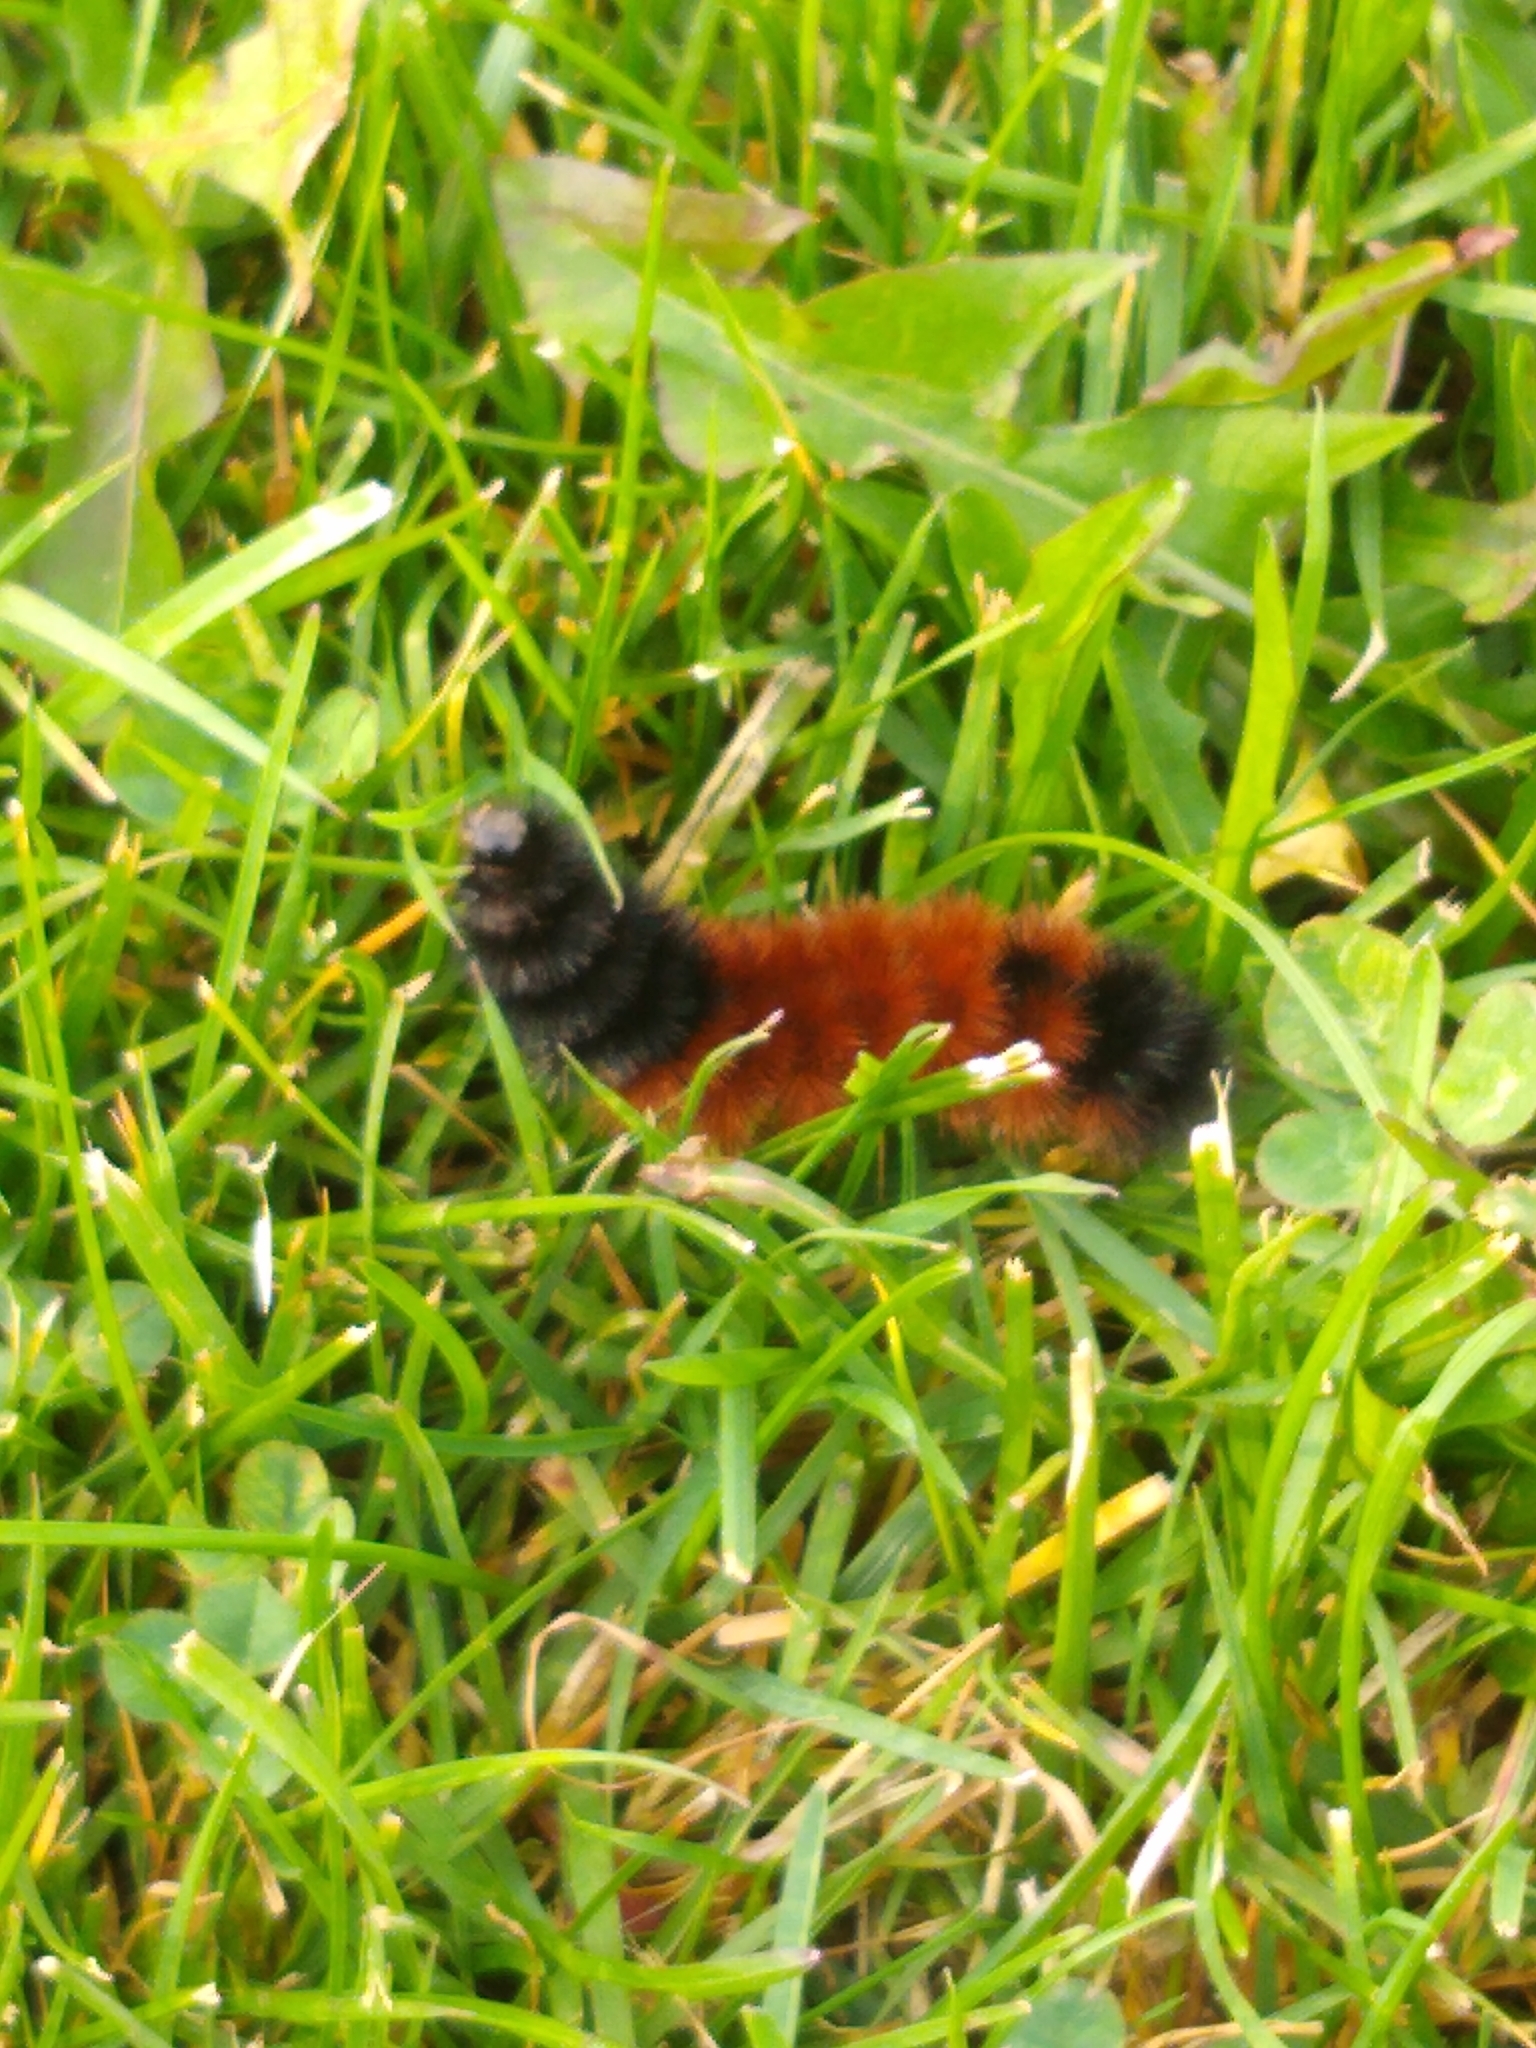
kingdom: Animalia
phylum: Arthropoda
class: Insecta
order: Lepidoptera
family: Erebidae
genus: Pyrrharctia
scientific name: Pyrrharctia isabella
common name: Isabella tiger moth
